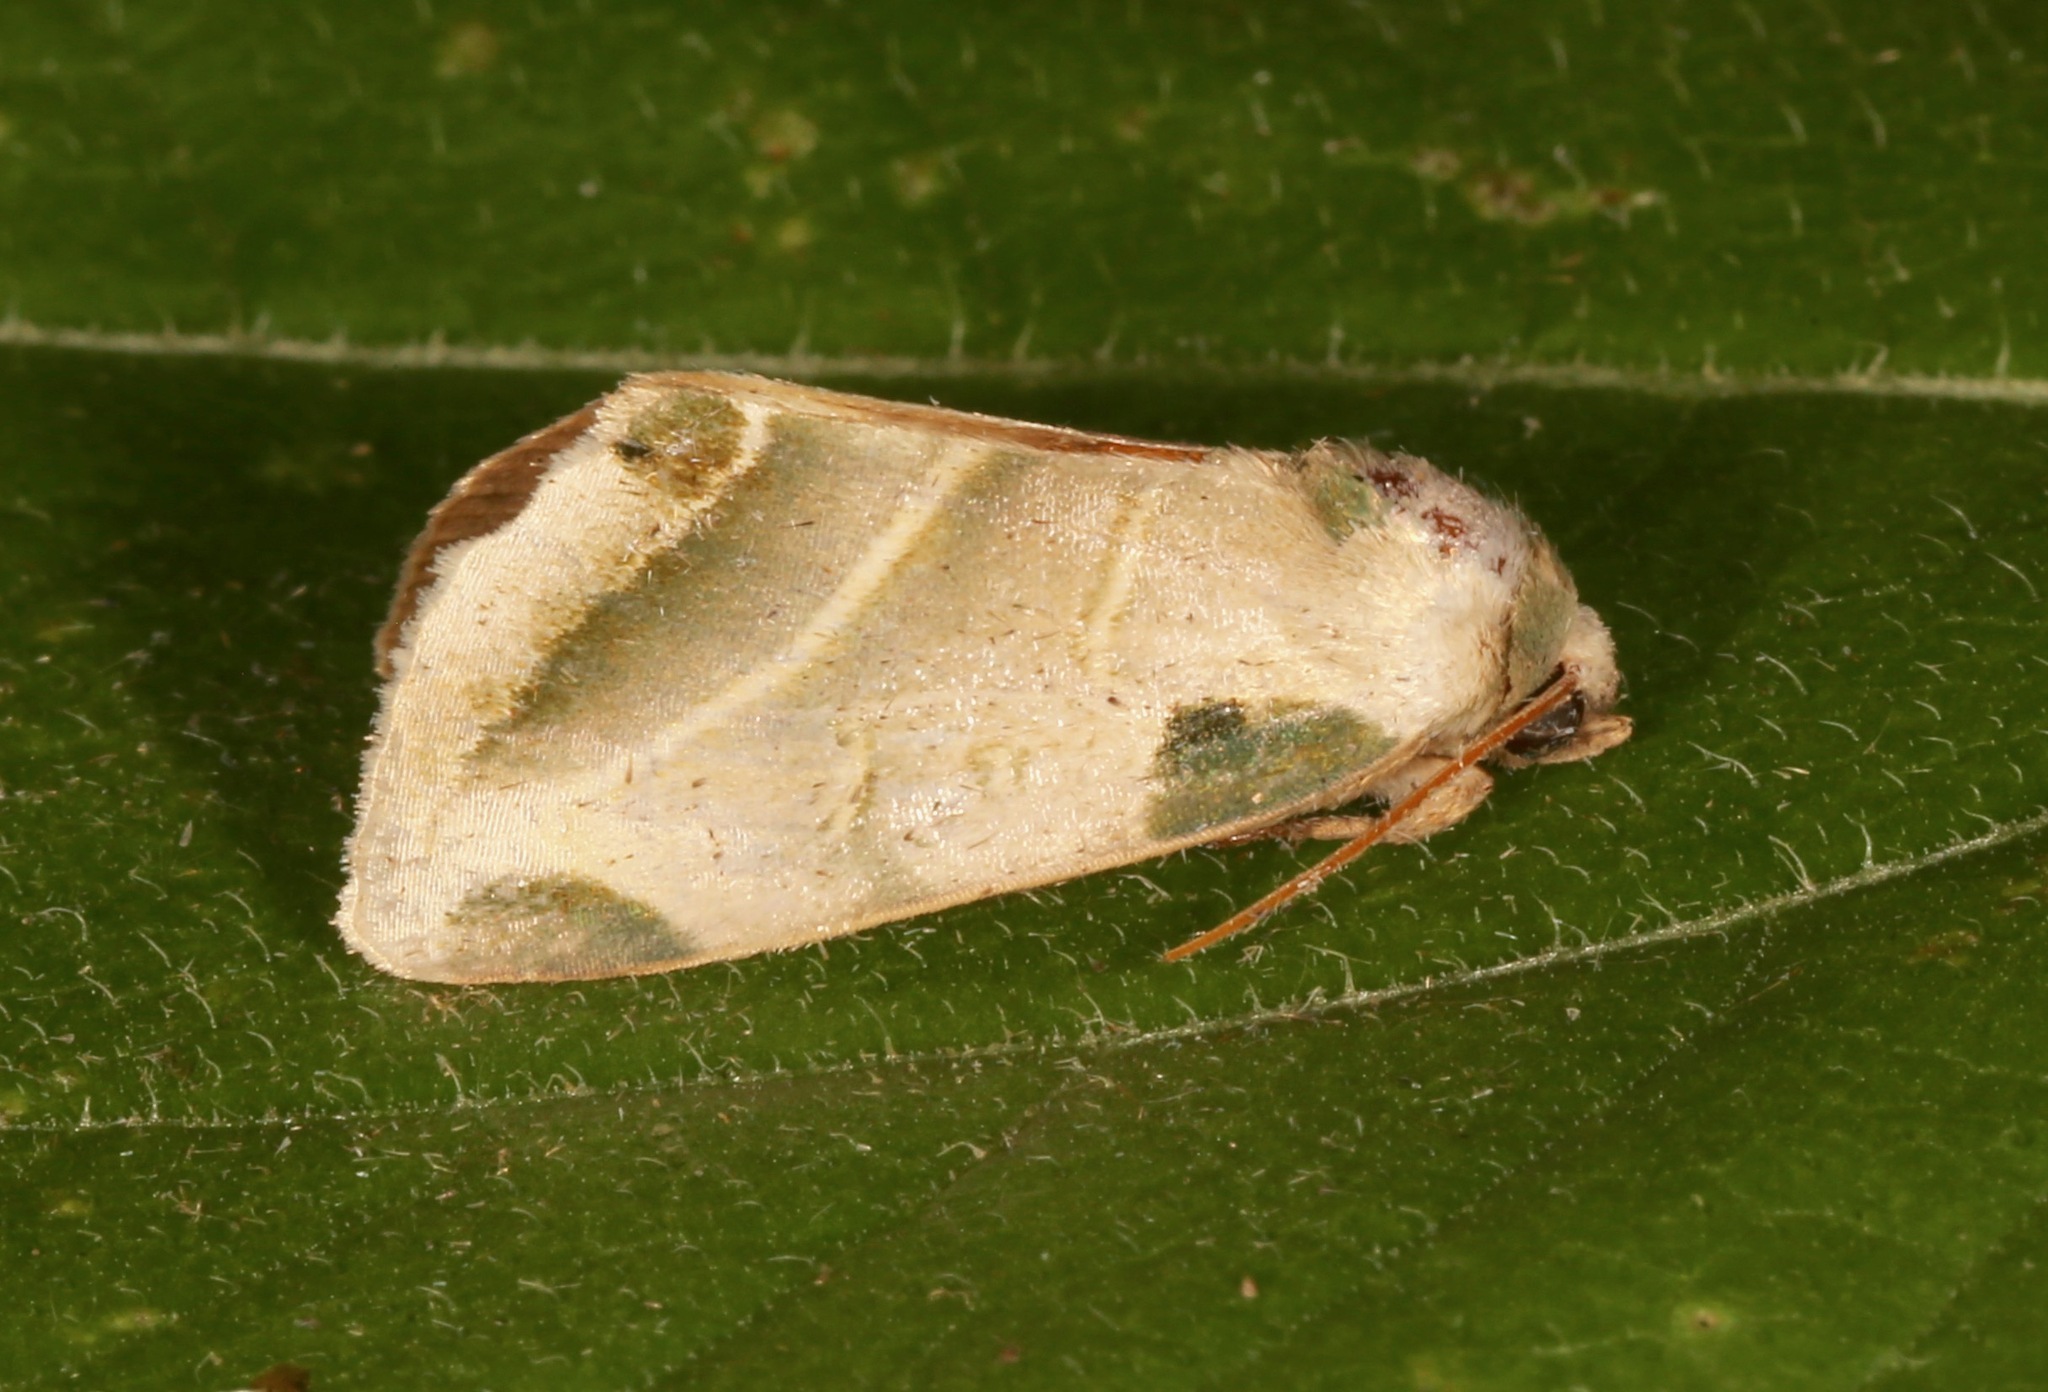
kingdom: Animalia
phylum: Arthropoda
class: Insecta
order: Lepidoptera
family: Noctuidae
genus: Heminocloa
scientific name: Heminocloa mirabilis
